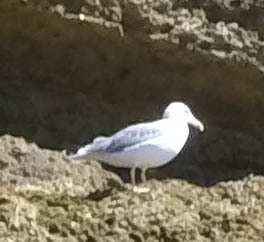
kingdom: Animalia
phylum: Chordata
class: Aves
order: Charadriiformes
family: Laridae
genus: Larus
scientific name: Larus michahellis
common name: Yellow-legged gull
